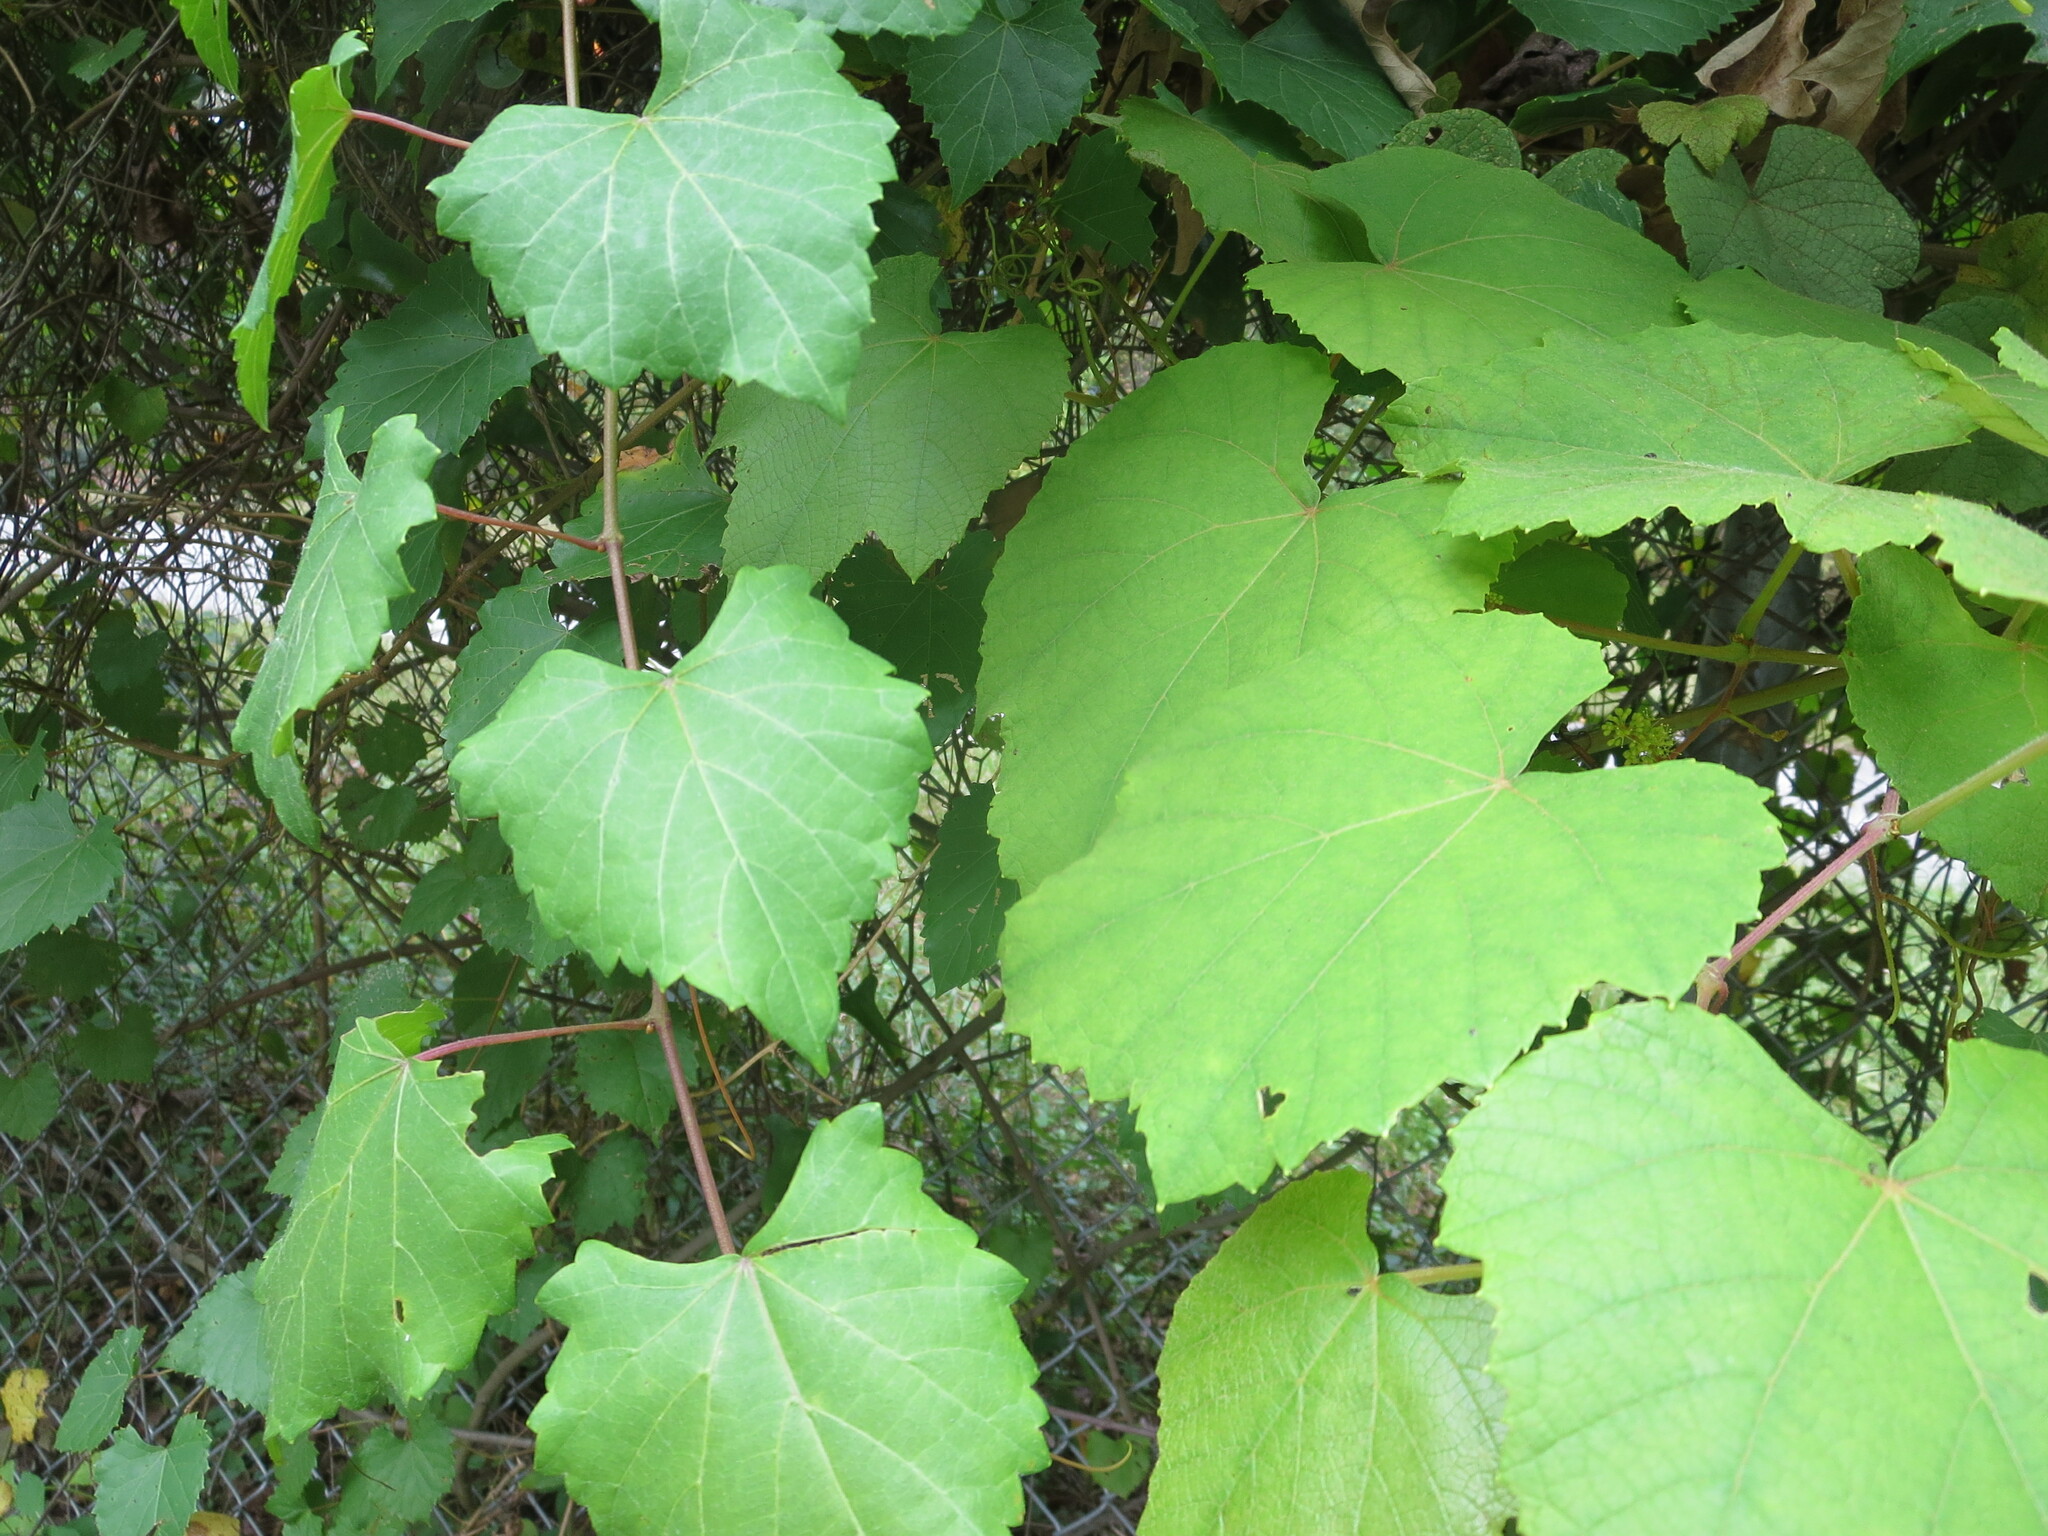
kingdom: Plantae
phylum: Tracheophyta
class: Magnoliopsida
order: Vitales
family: Vitaceae
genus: Vitis
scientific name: Vitis rotundifolia
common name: Muscadine grape
